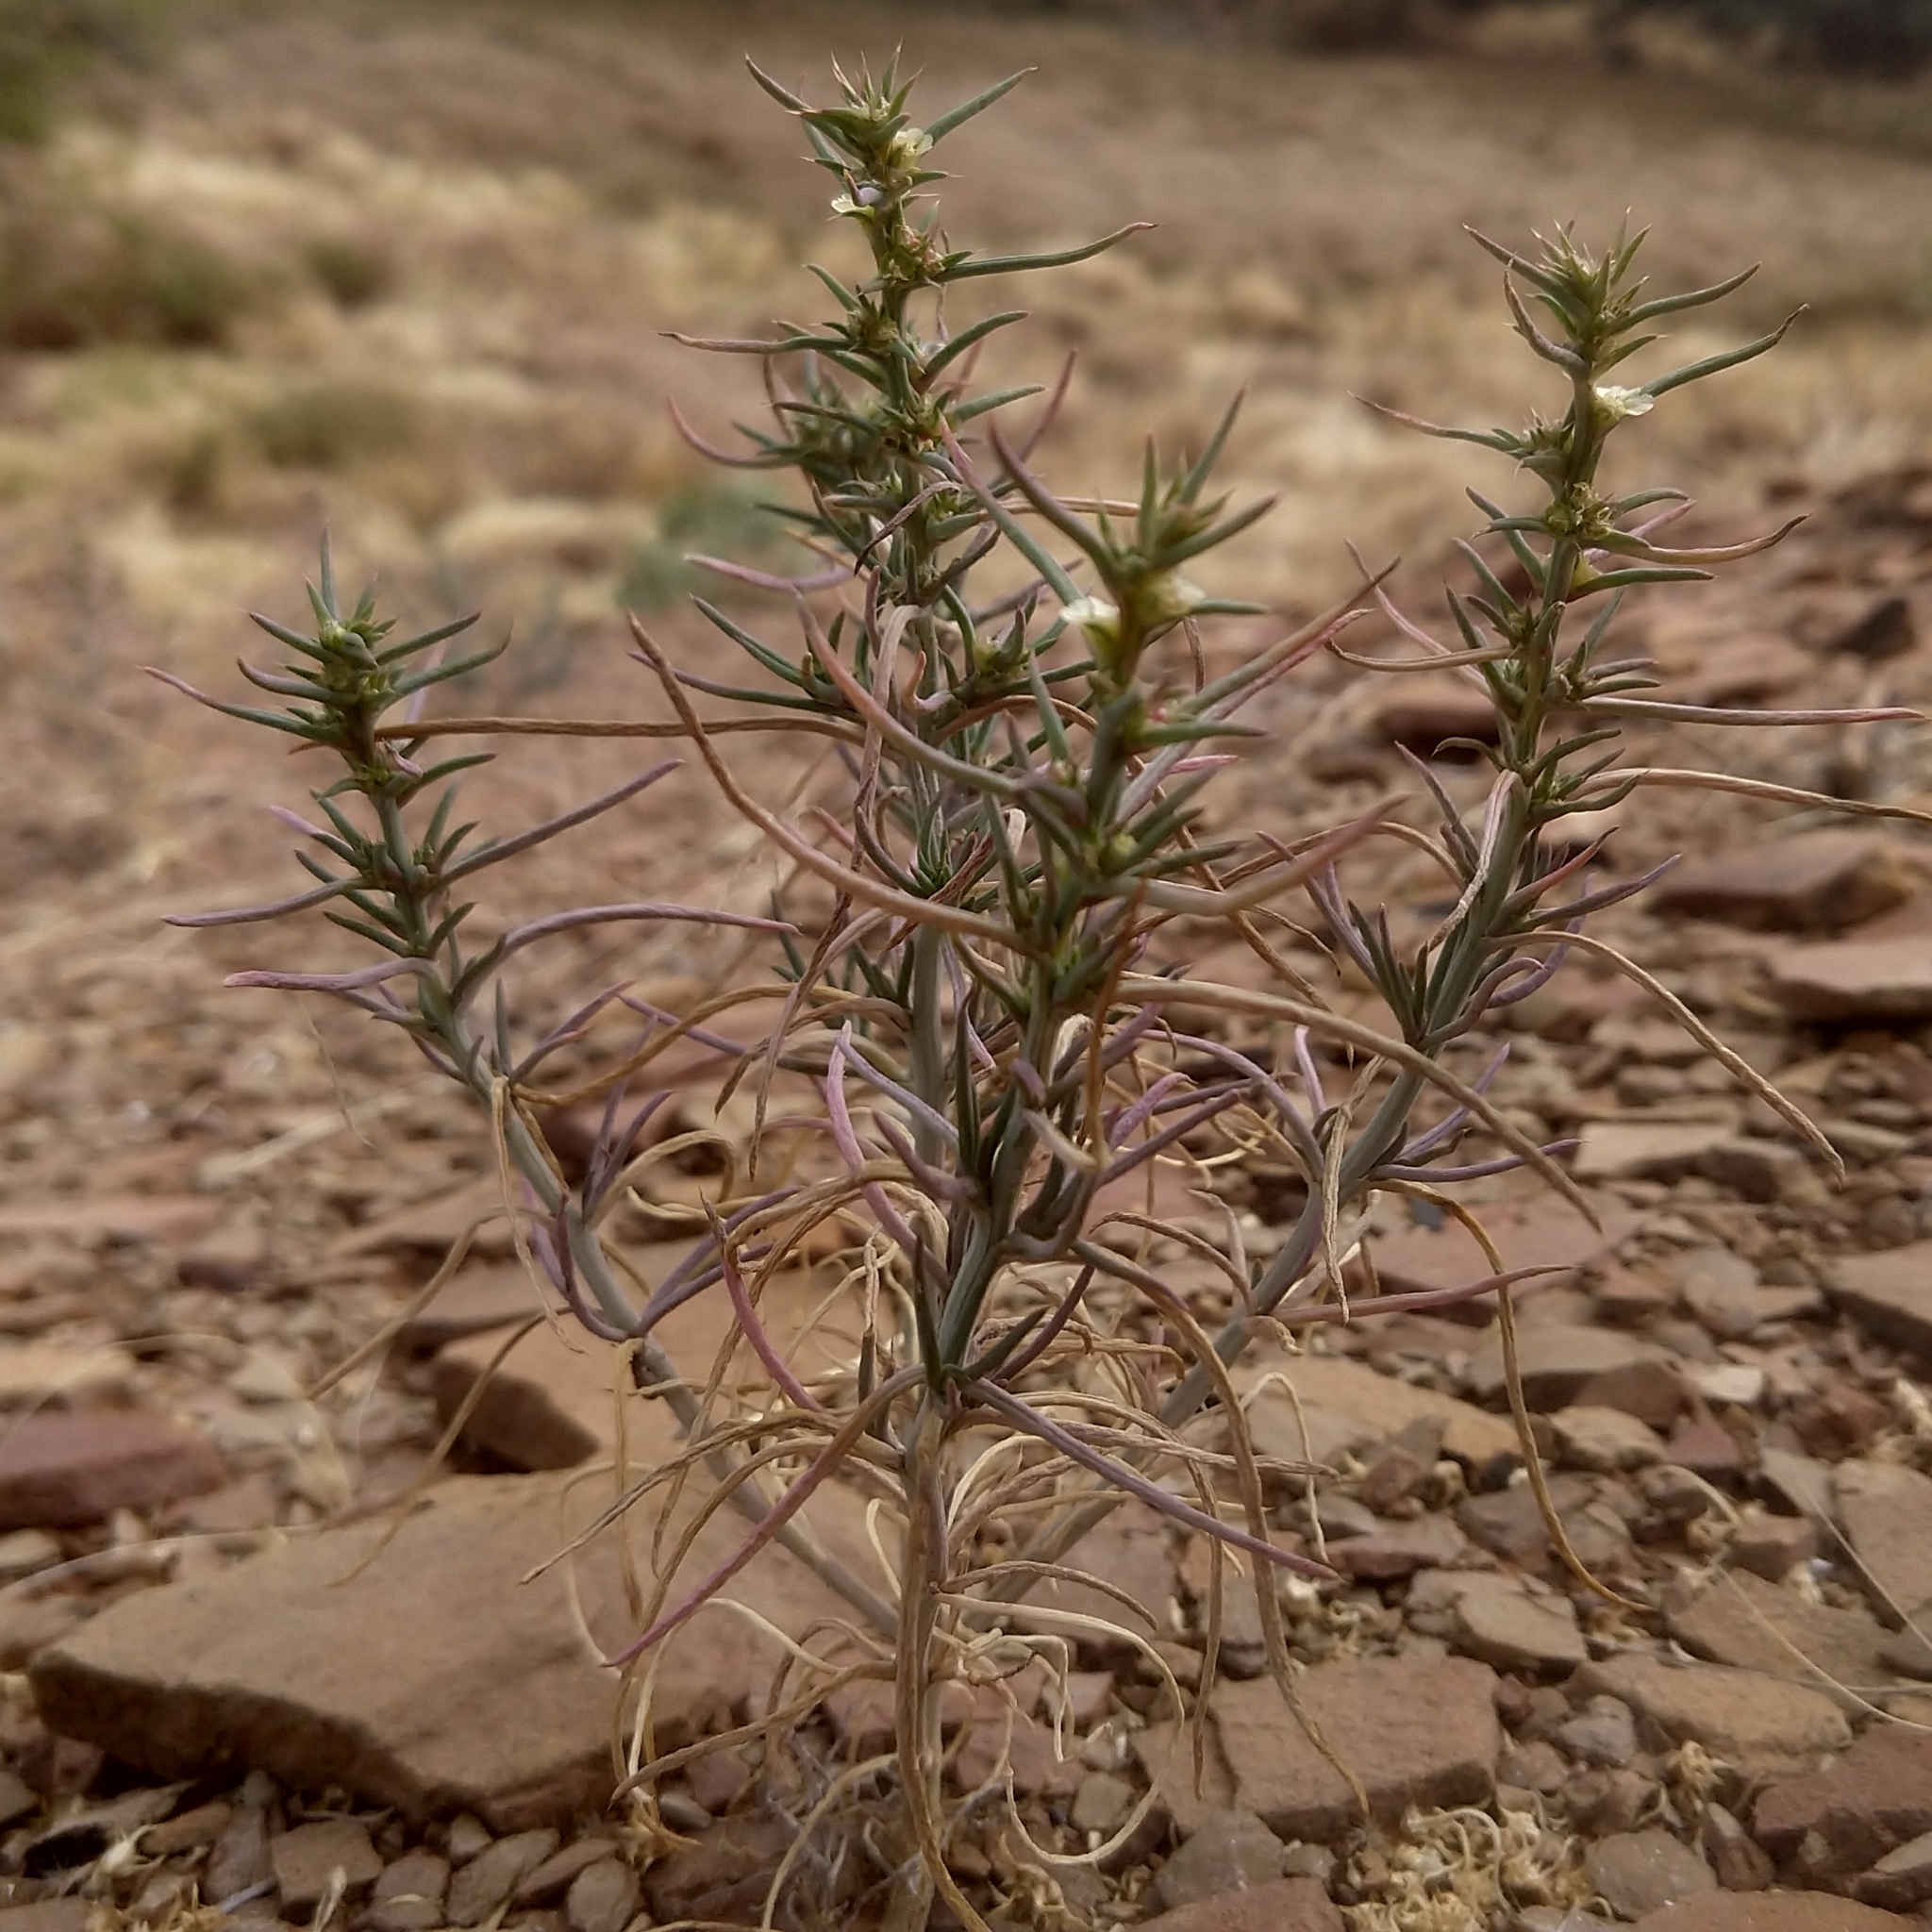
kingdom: Plantae
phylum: Tracheophyta
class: Magnoliopsida
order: Caryophyllales
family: Amaranthaceae
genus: Salsola
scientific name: Salsola australis
